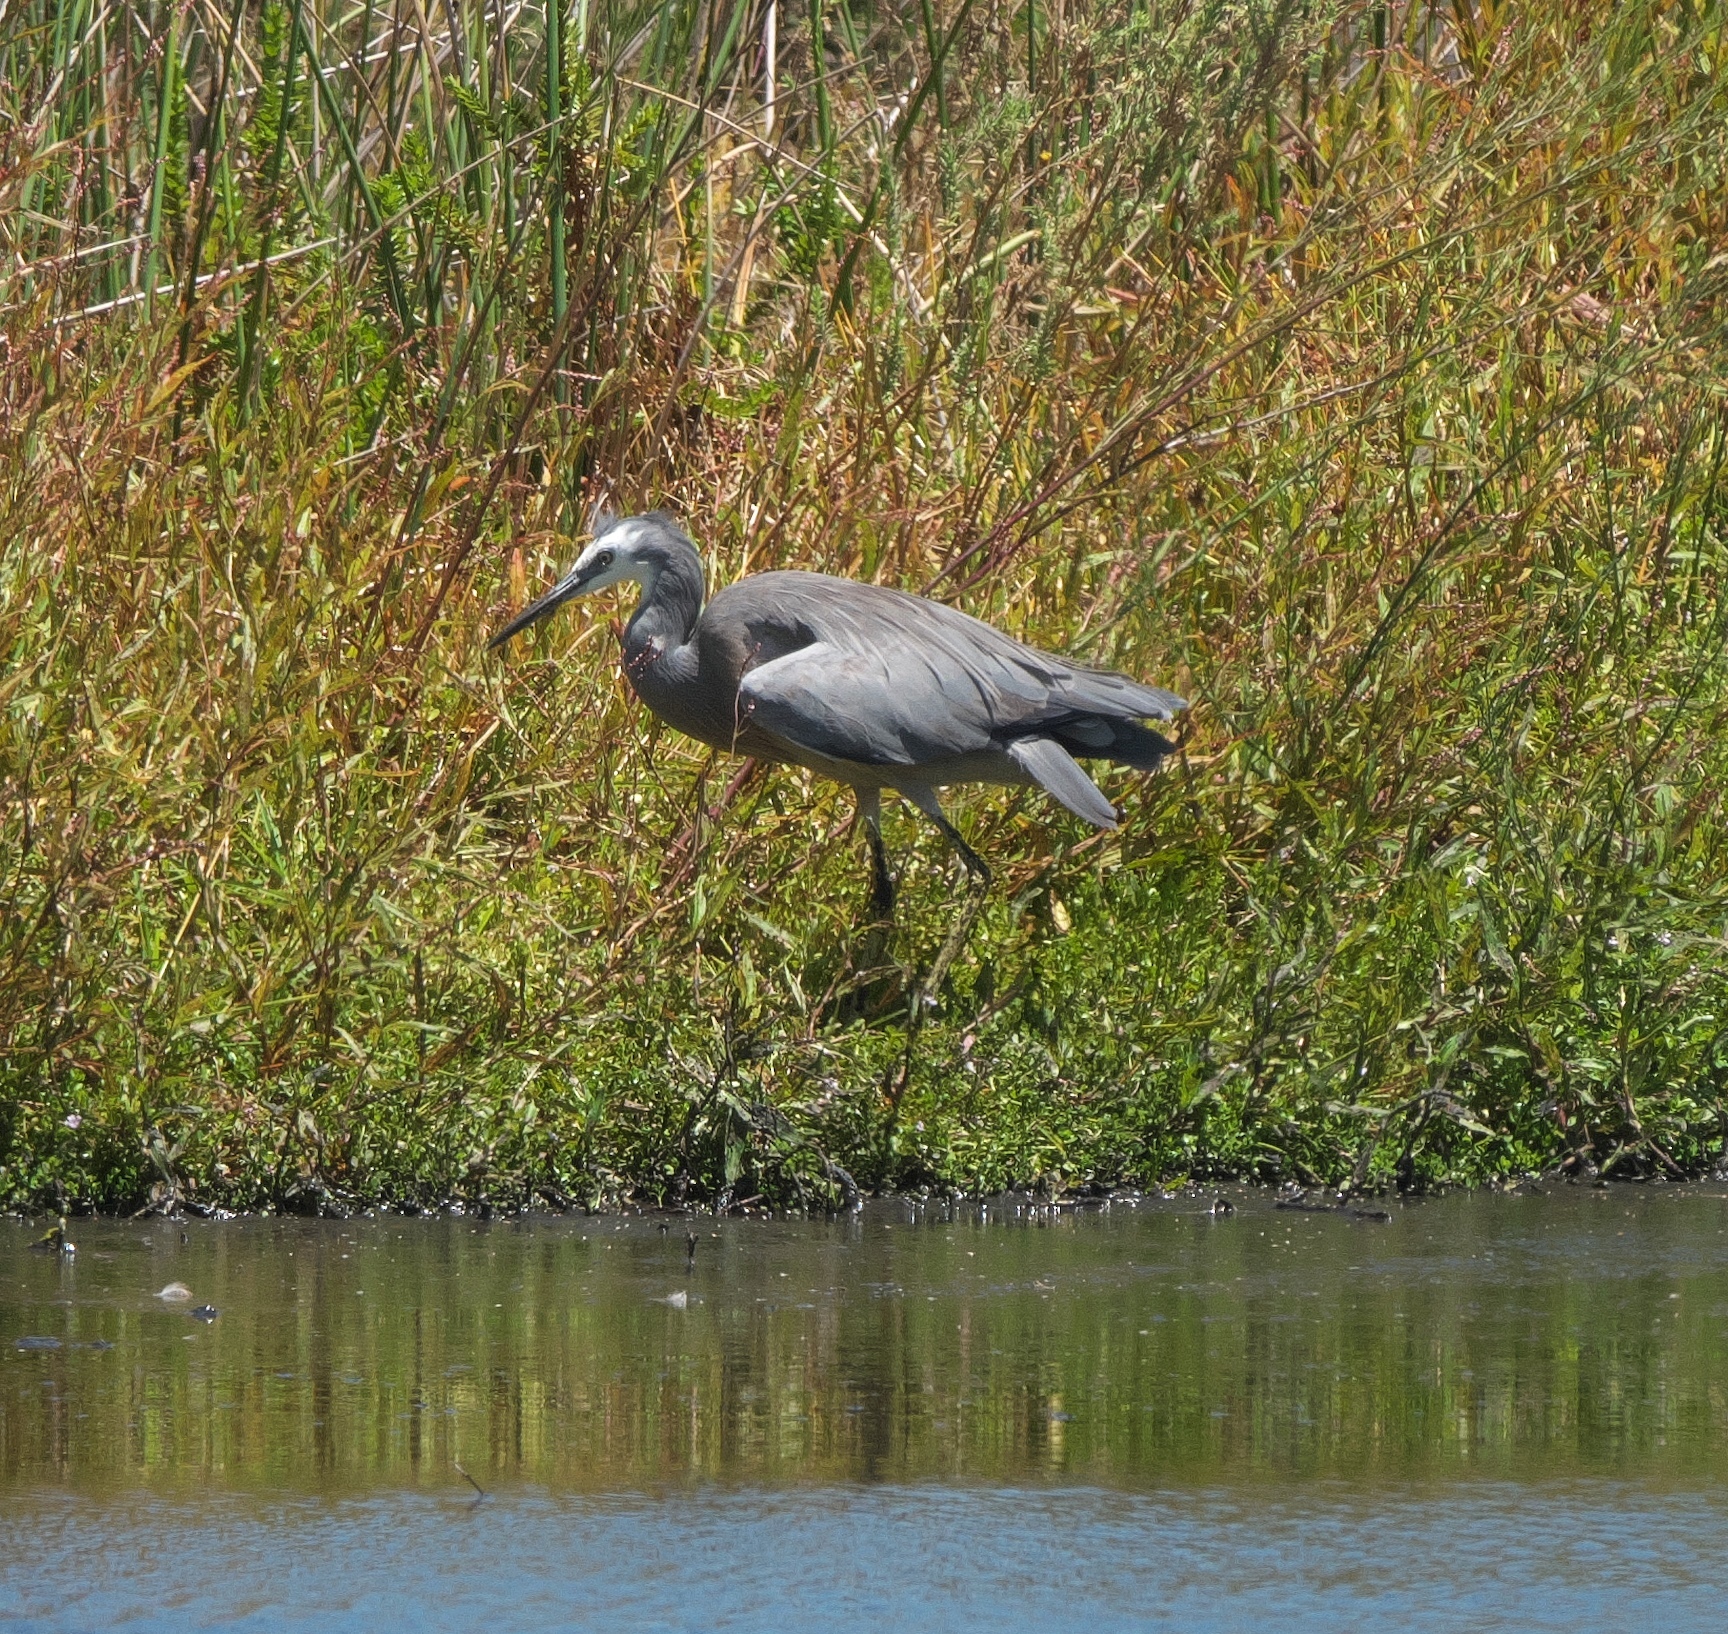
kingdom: Animalia
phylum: Chordata
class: Aves
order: Pelecaniformes
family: Ardeidae
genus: Egretta
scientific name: Egretta novaehollandiae
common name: White-faced heron
